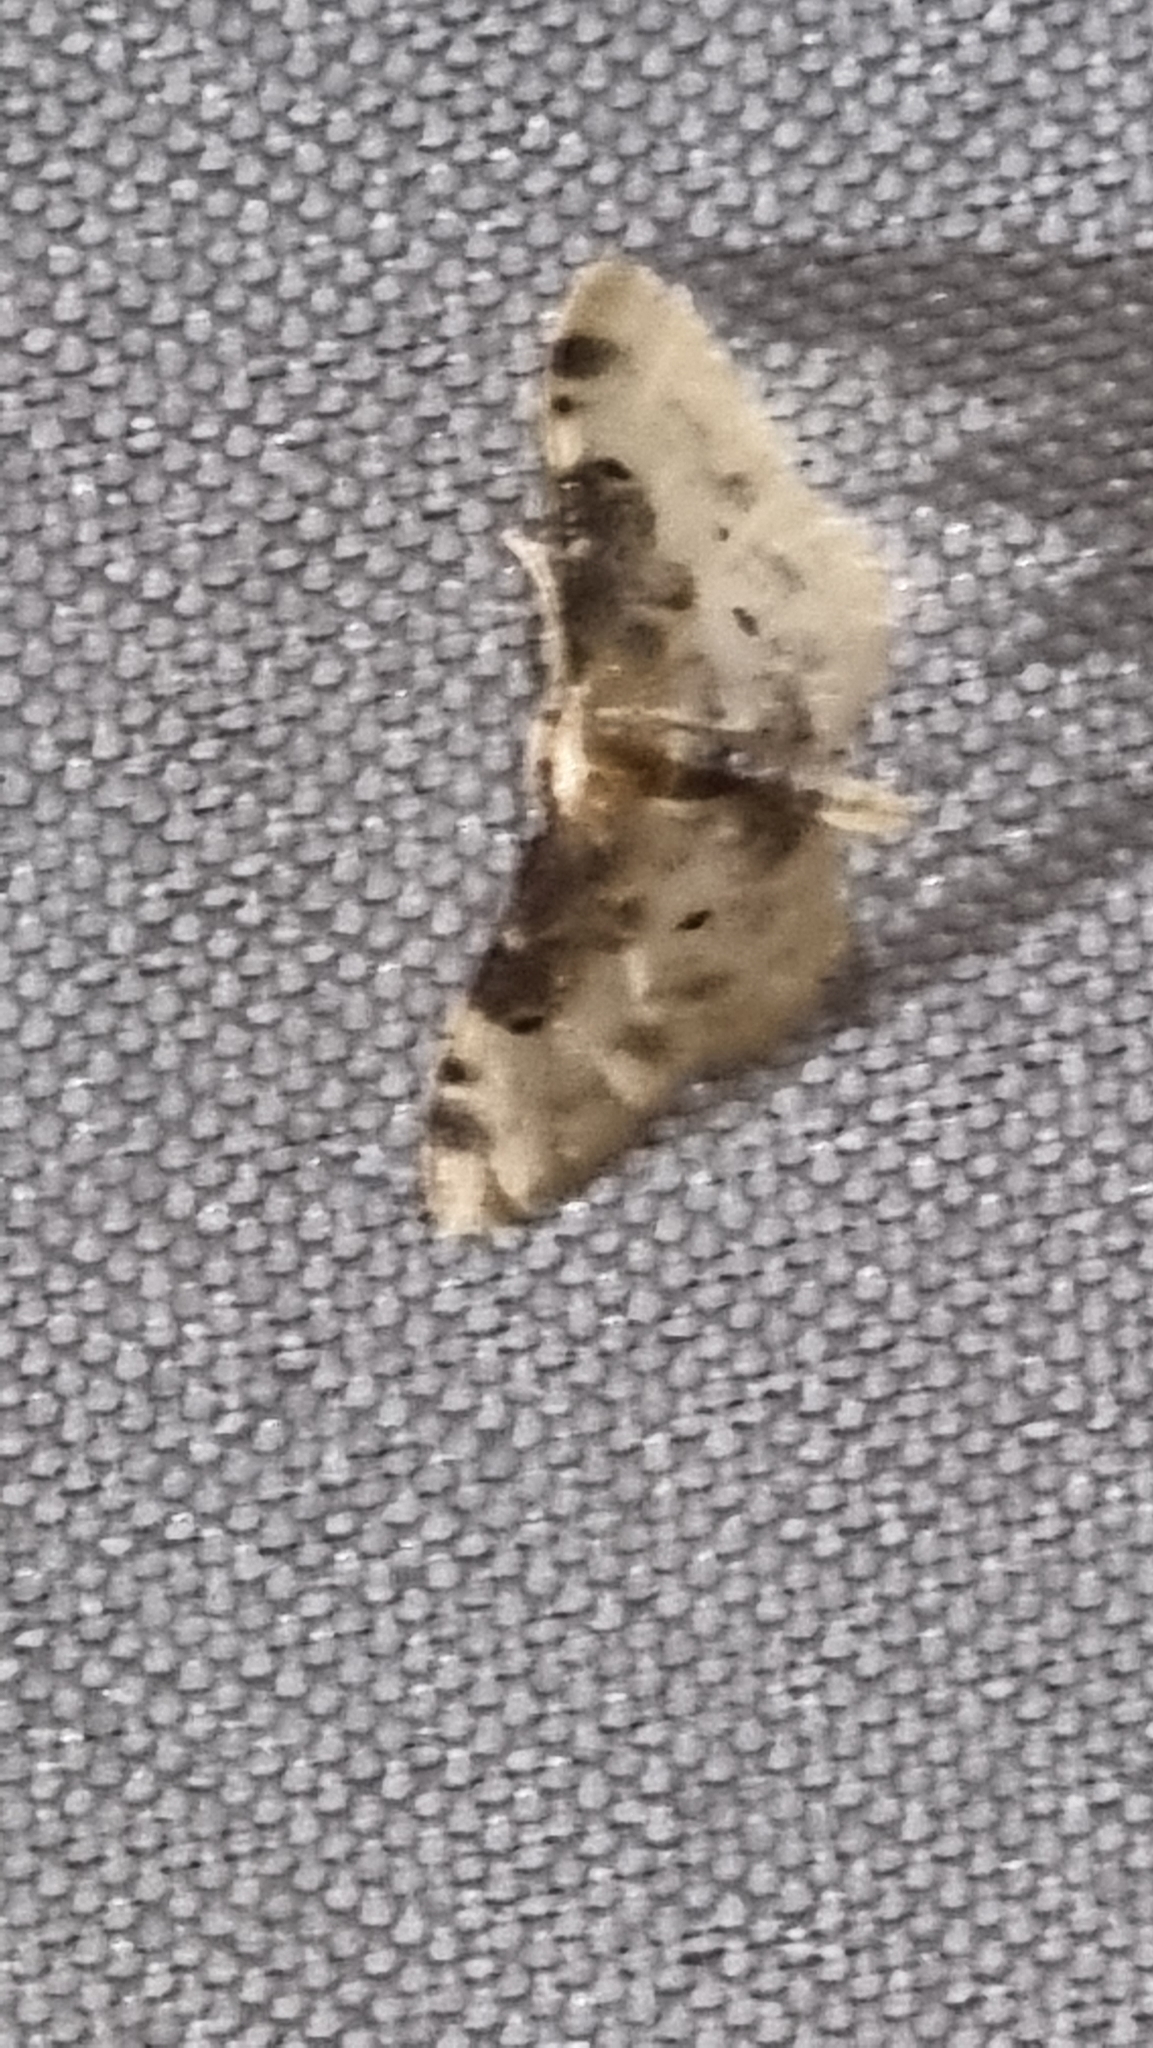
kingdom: Animalia
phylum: Arthropoda
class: Insecta
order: Lepidoptera
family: Geometridae
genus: Idaea
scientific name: Idaea filicata
